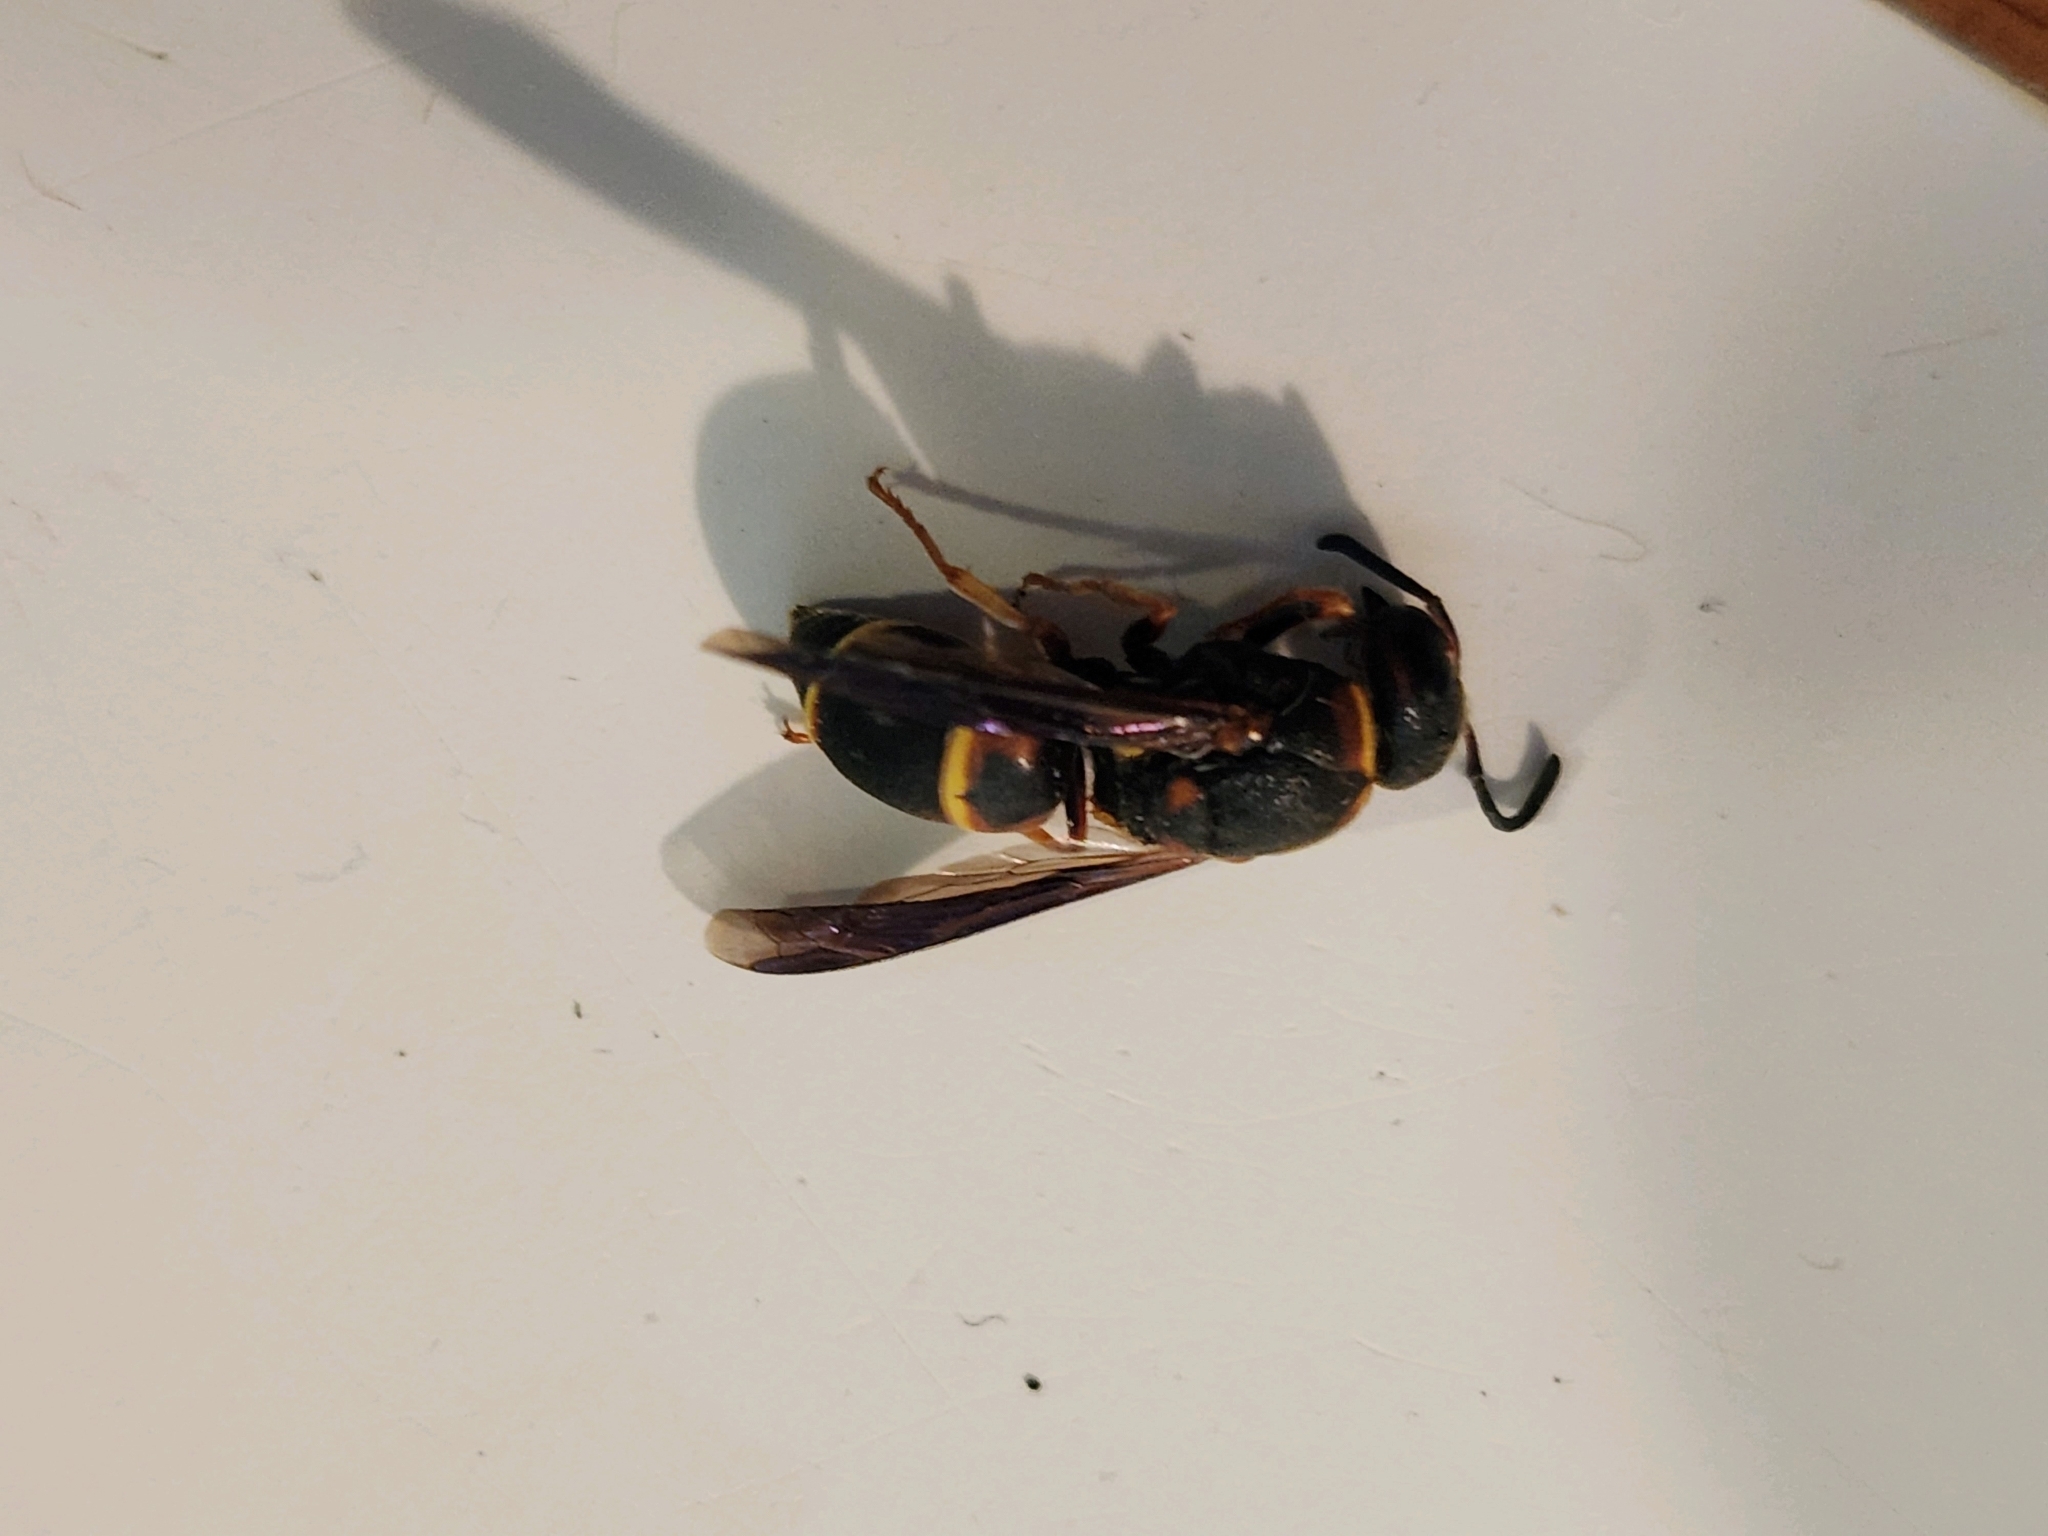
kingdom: Animalia
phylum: Arthropoda
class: Insecta
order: Hymenoptera
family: Eumenidae
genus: Euodynerus
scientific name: Euodynerus castigatus
